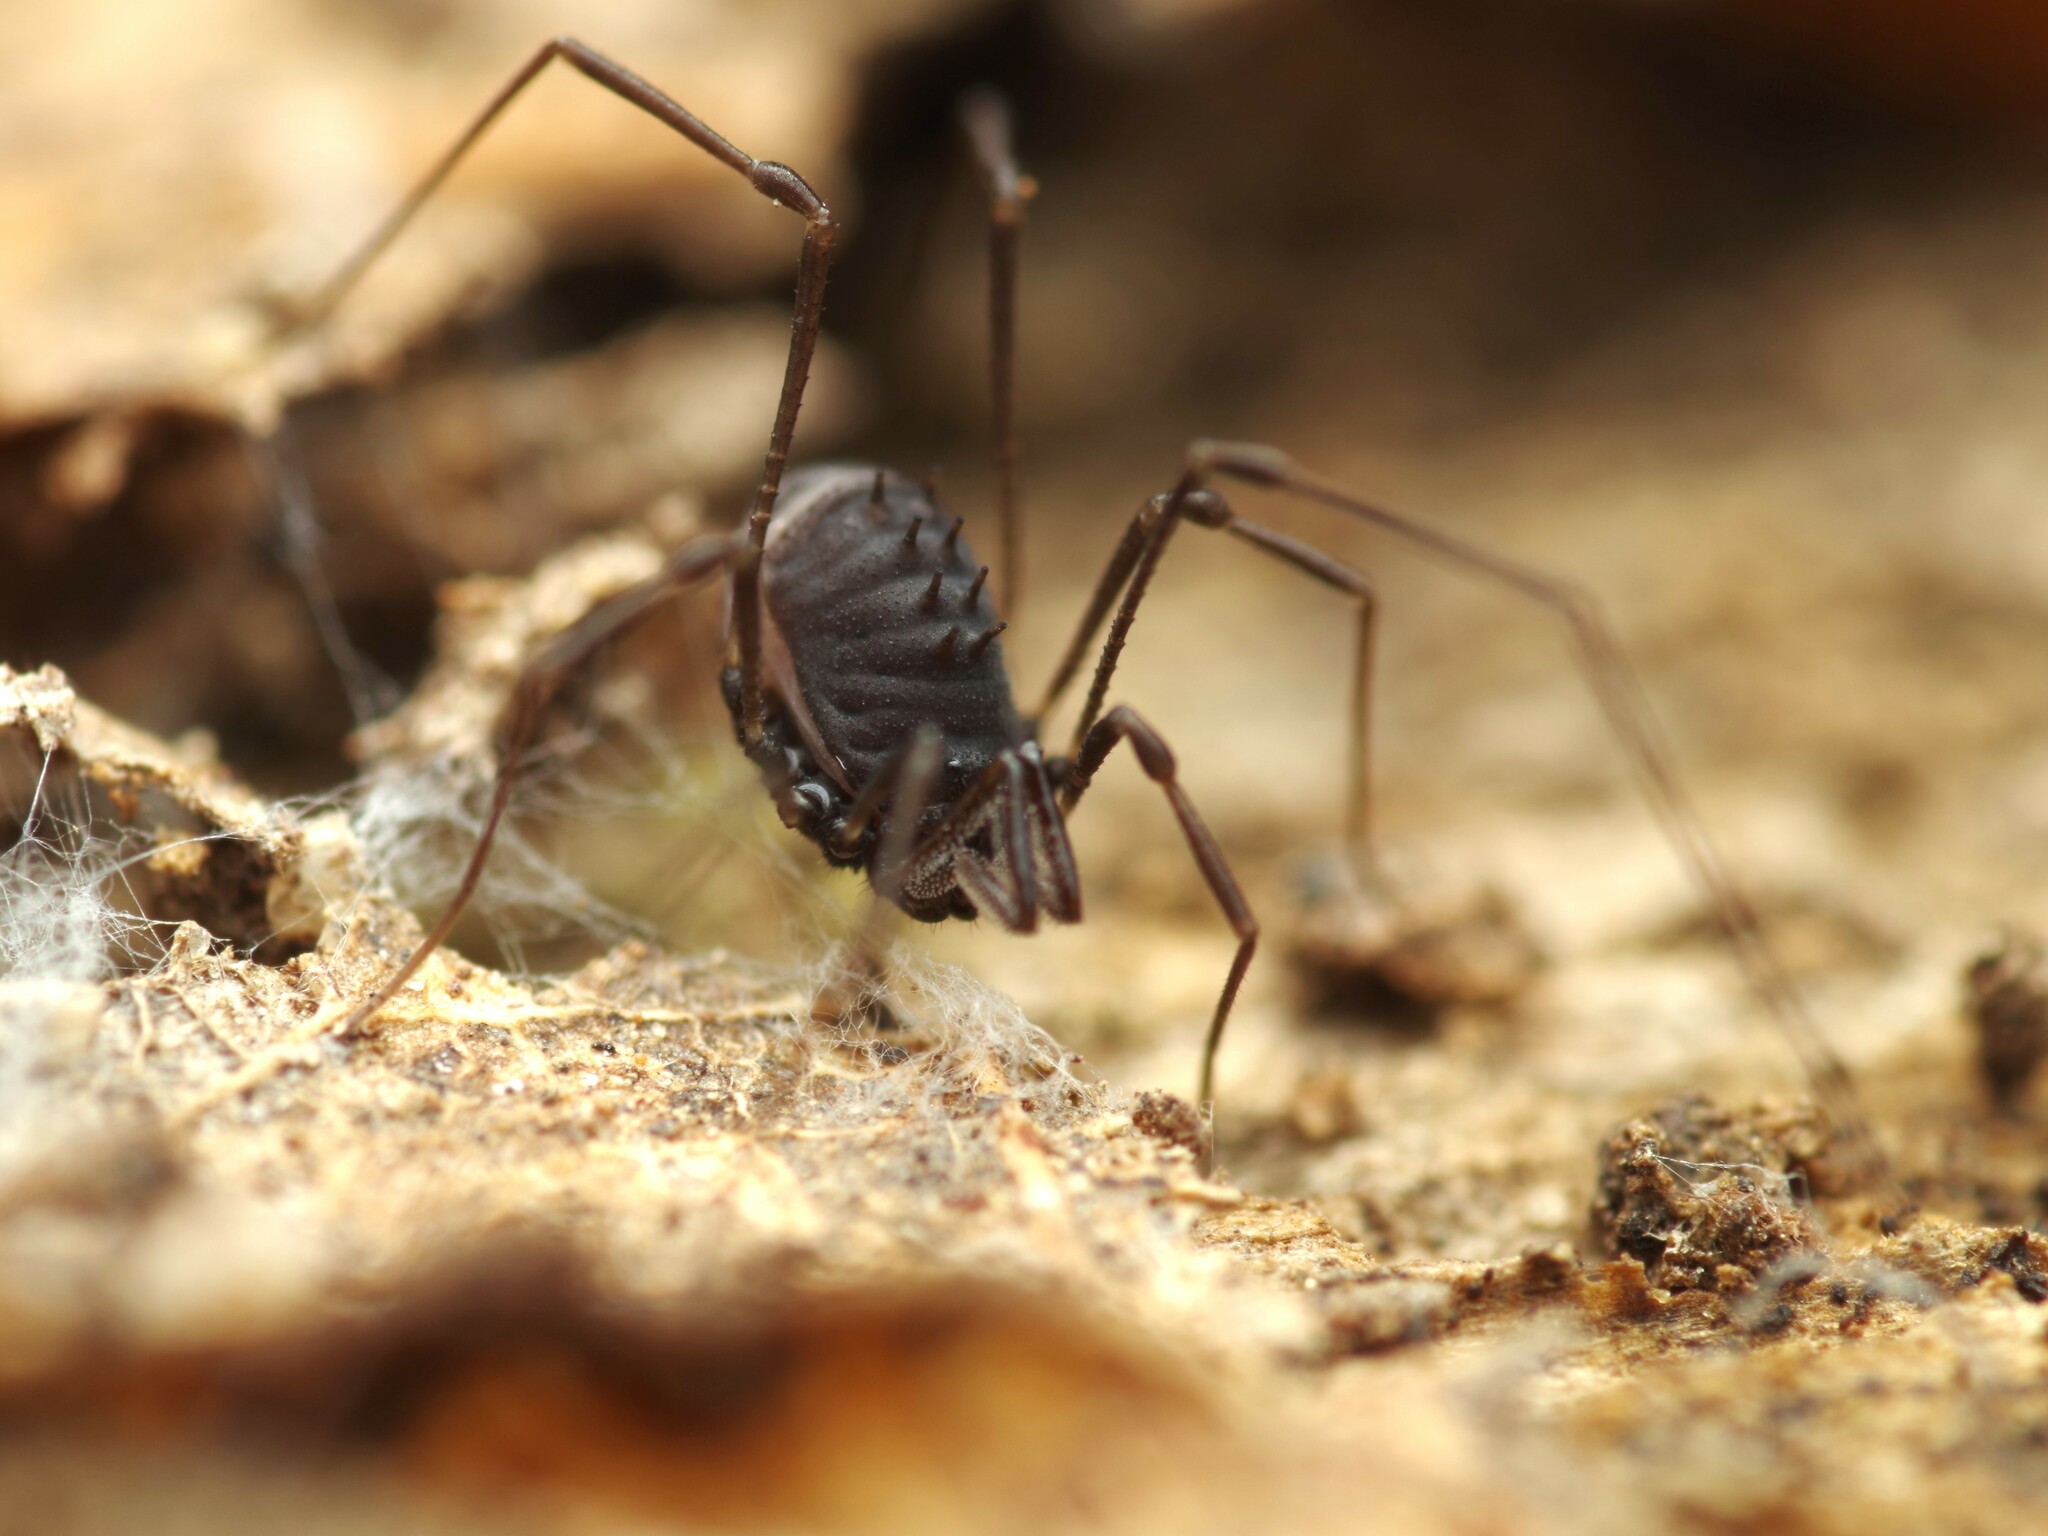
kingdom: Animalia
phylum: Arthropoda
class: Arachnida
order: Opiliones
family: Nemastomatidae
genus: Nemastomella
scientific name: Nemastomella dubia
